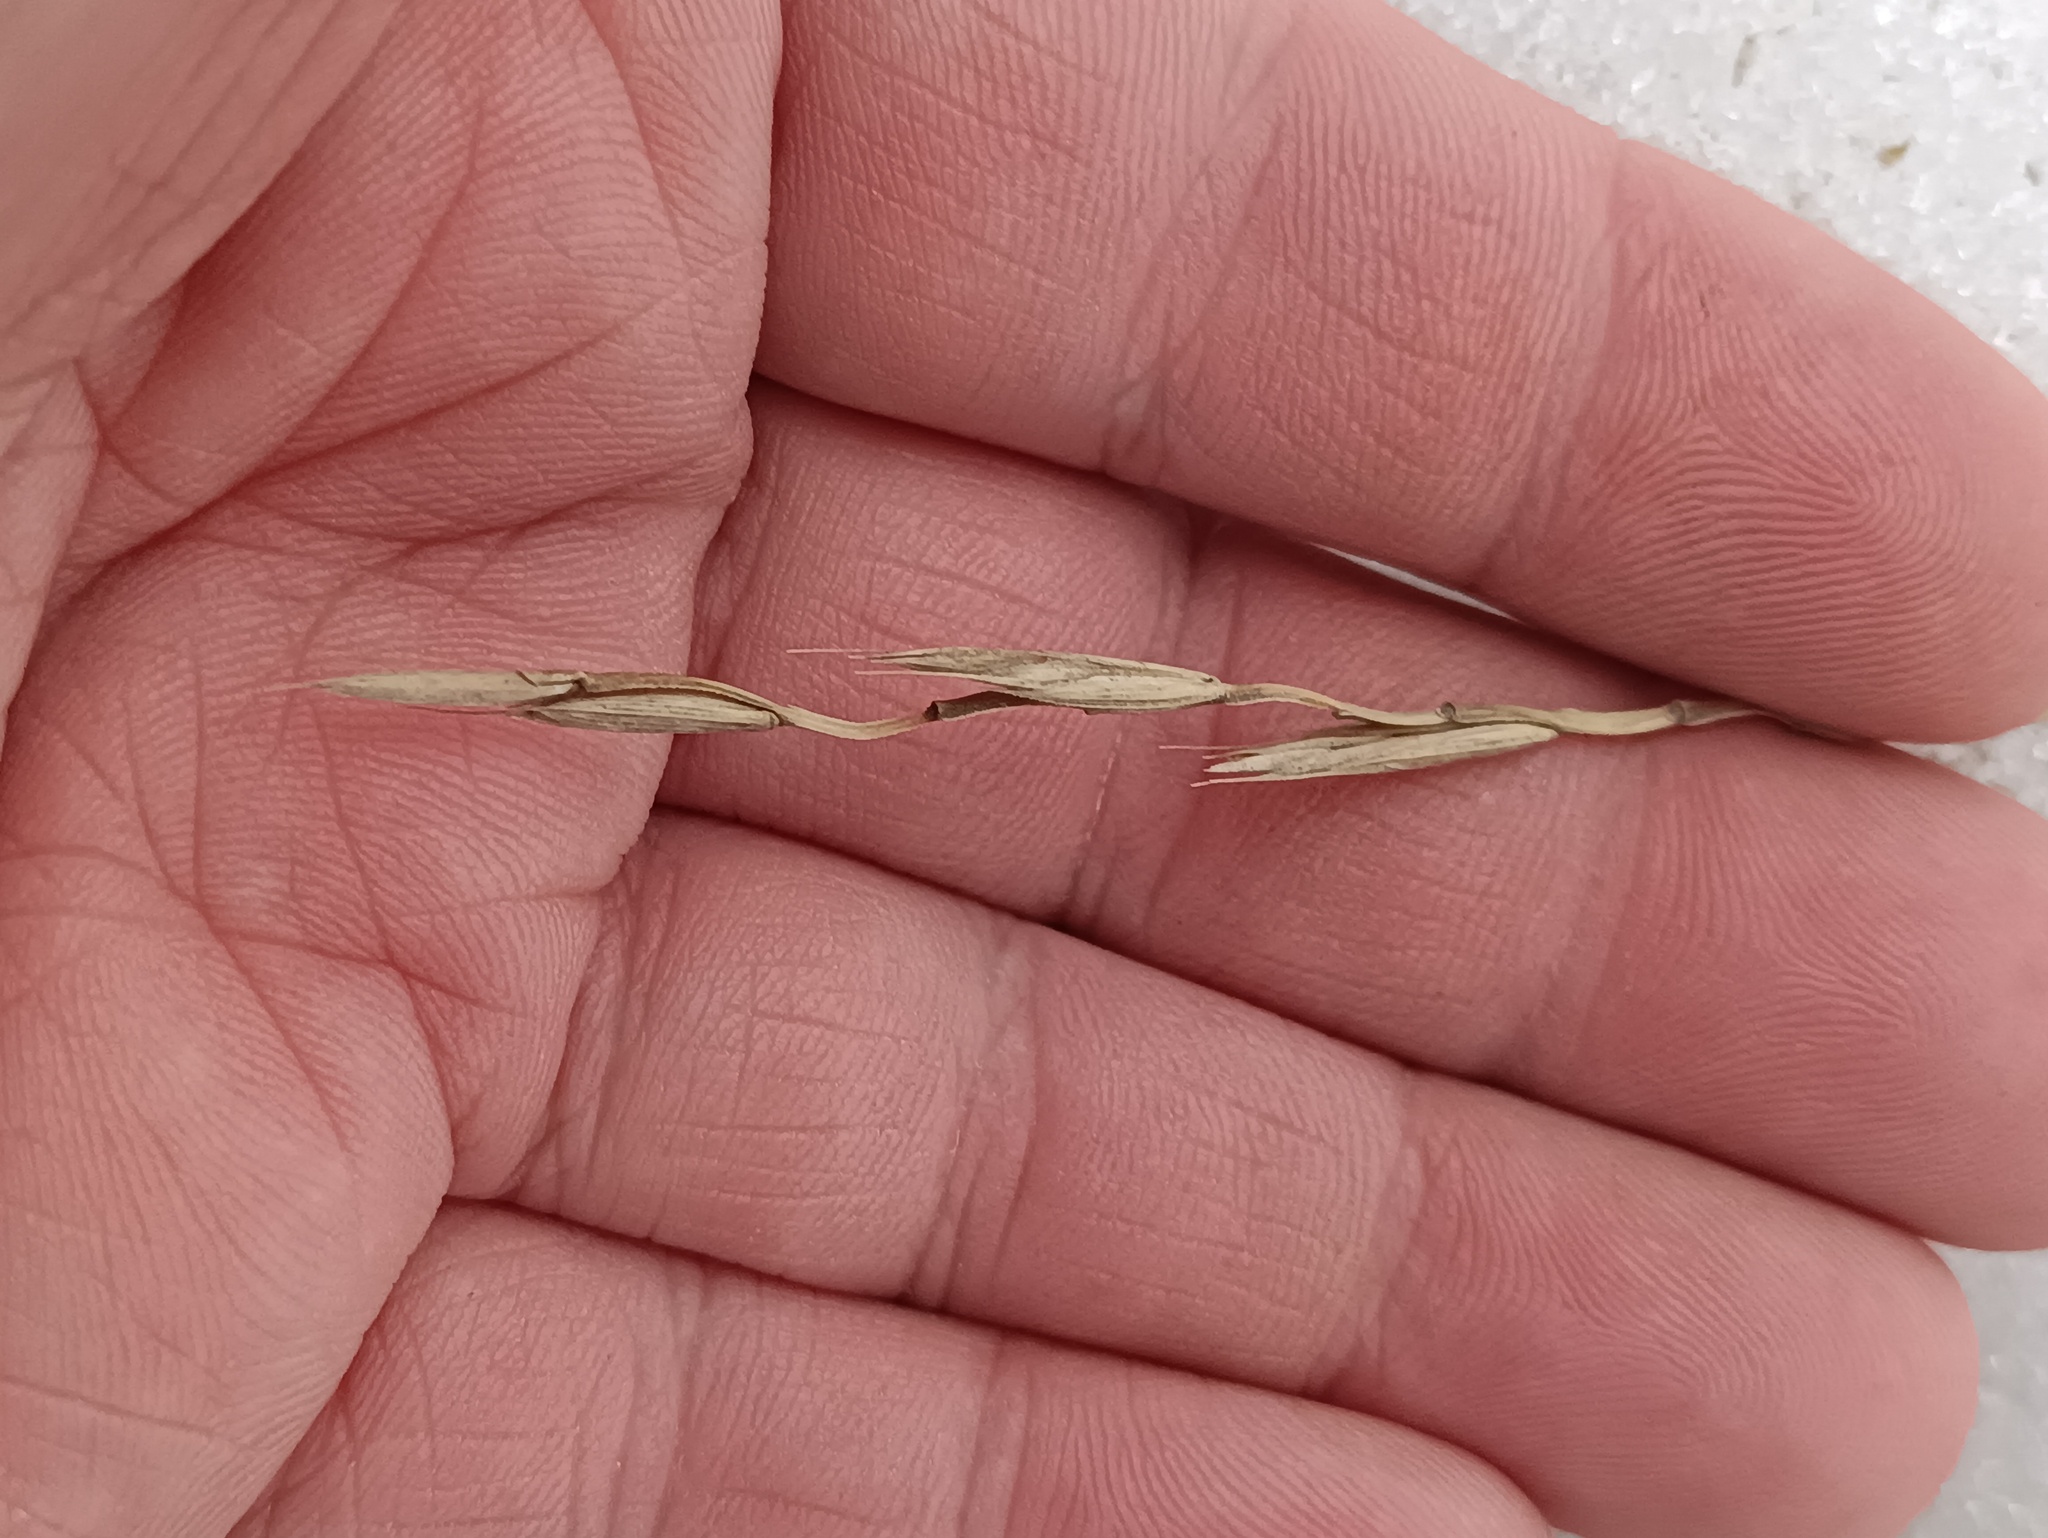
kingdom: Plantae
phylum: Tracheophyta
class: Liliopsida
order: Poales
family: Poaceae
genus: Elymus
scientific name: Elymus repens
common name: Quackgrass
